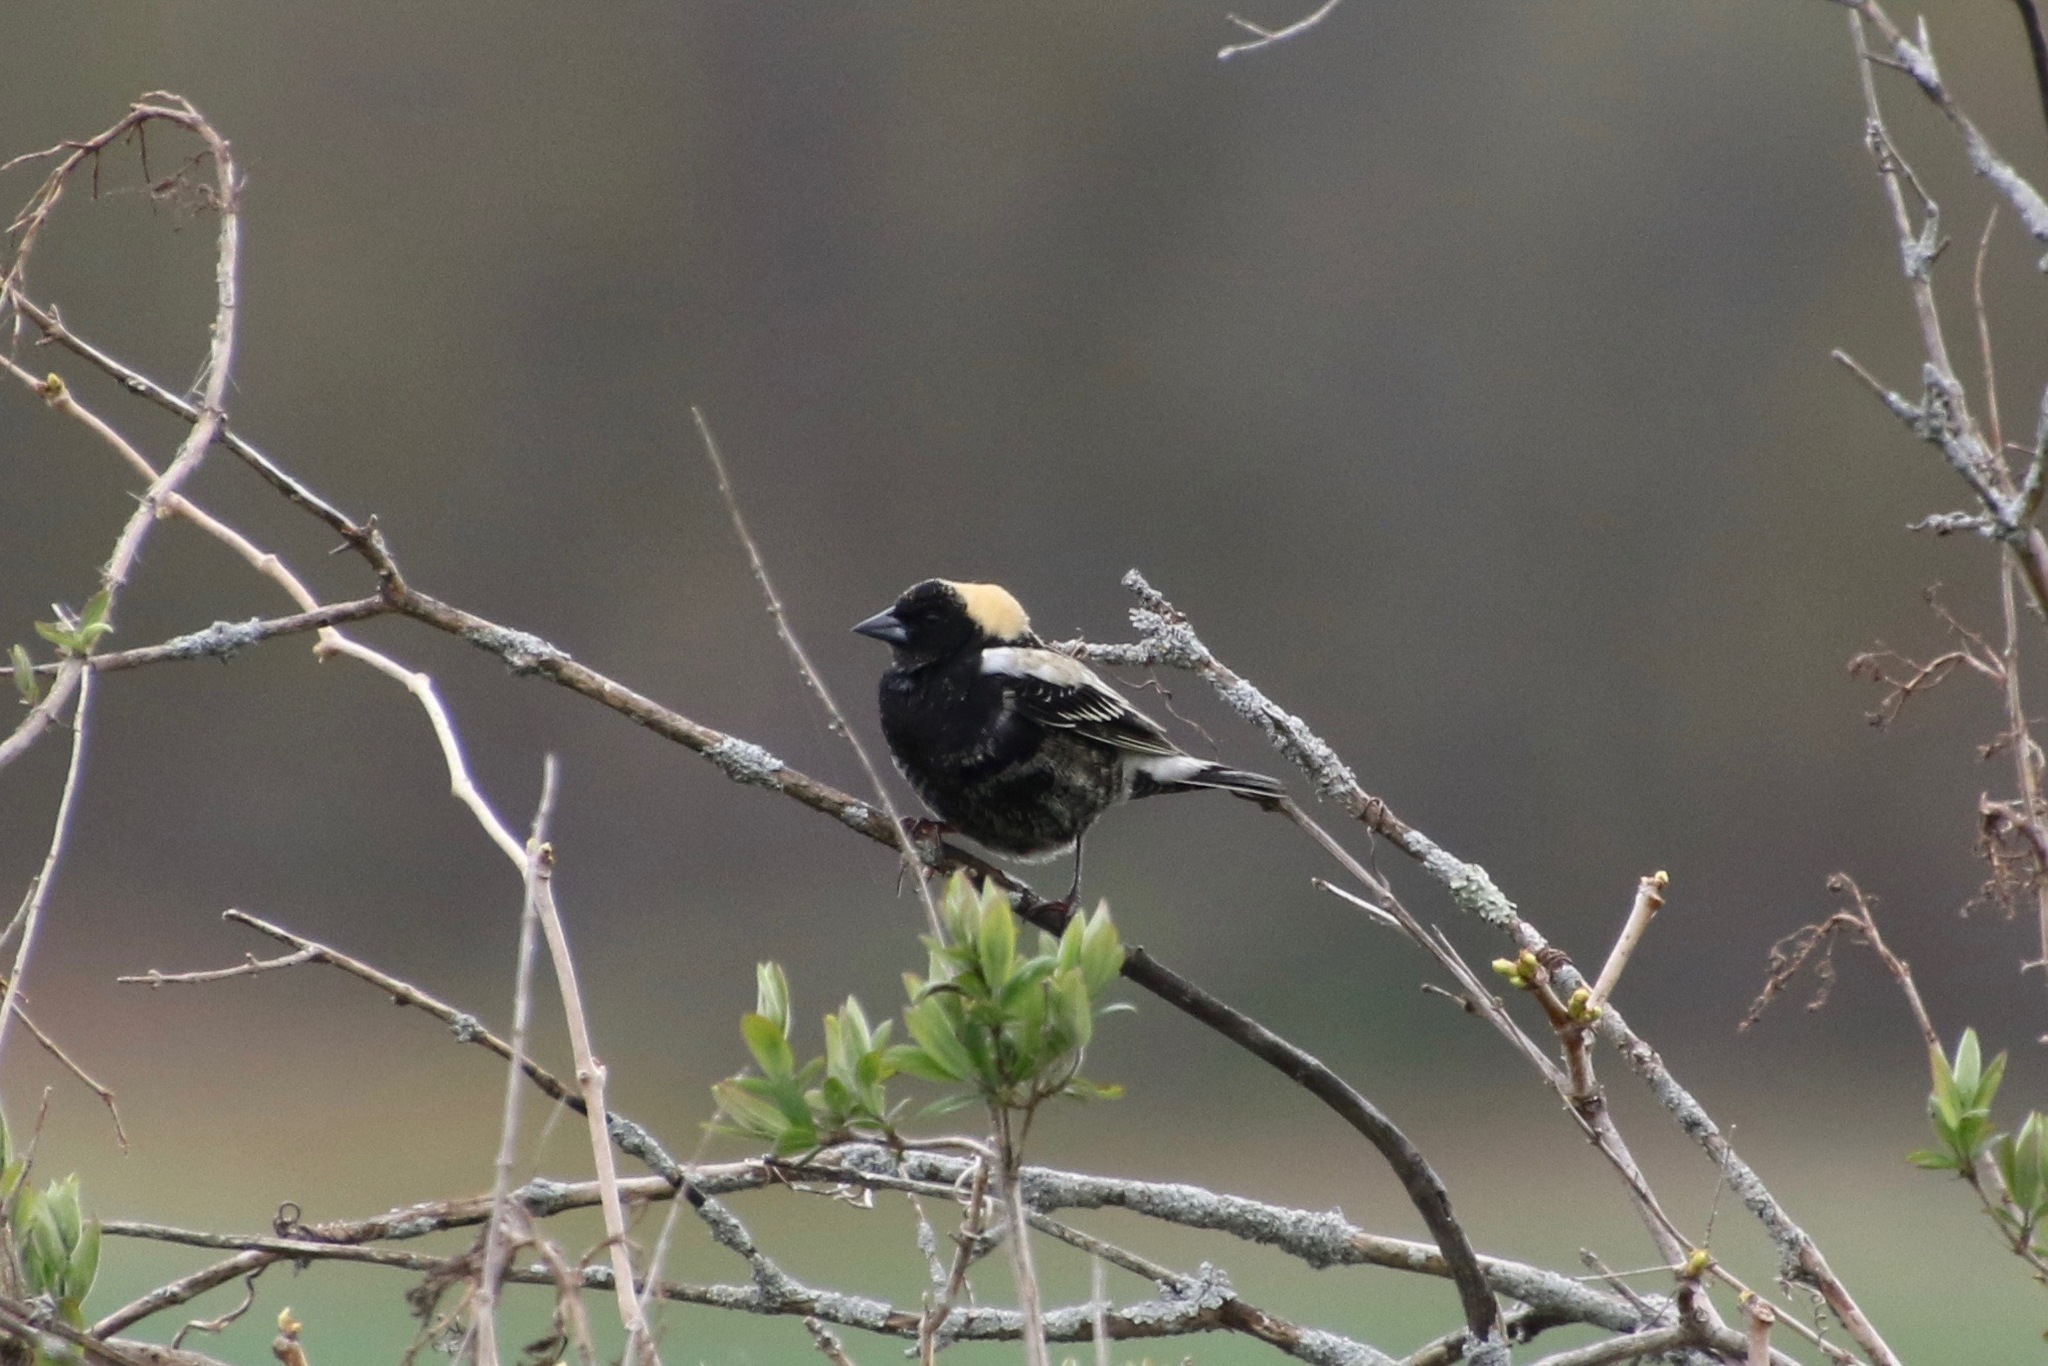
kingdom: Animalia
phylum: Chordata
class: Aves
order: Passeriformes
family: Icteridae
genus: Dolichonyx
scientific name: Dolichonyx oryzivorus
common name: Bobolink
